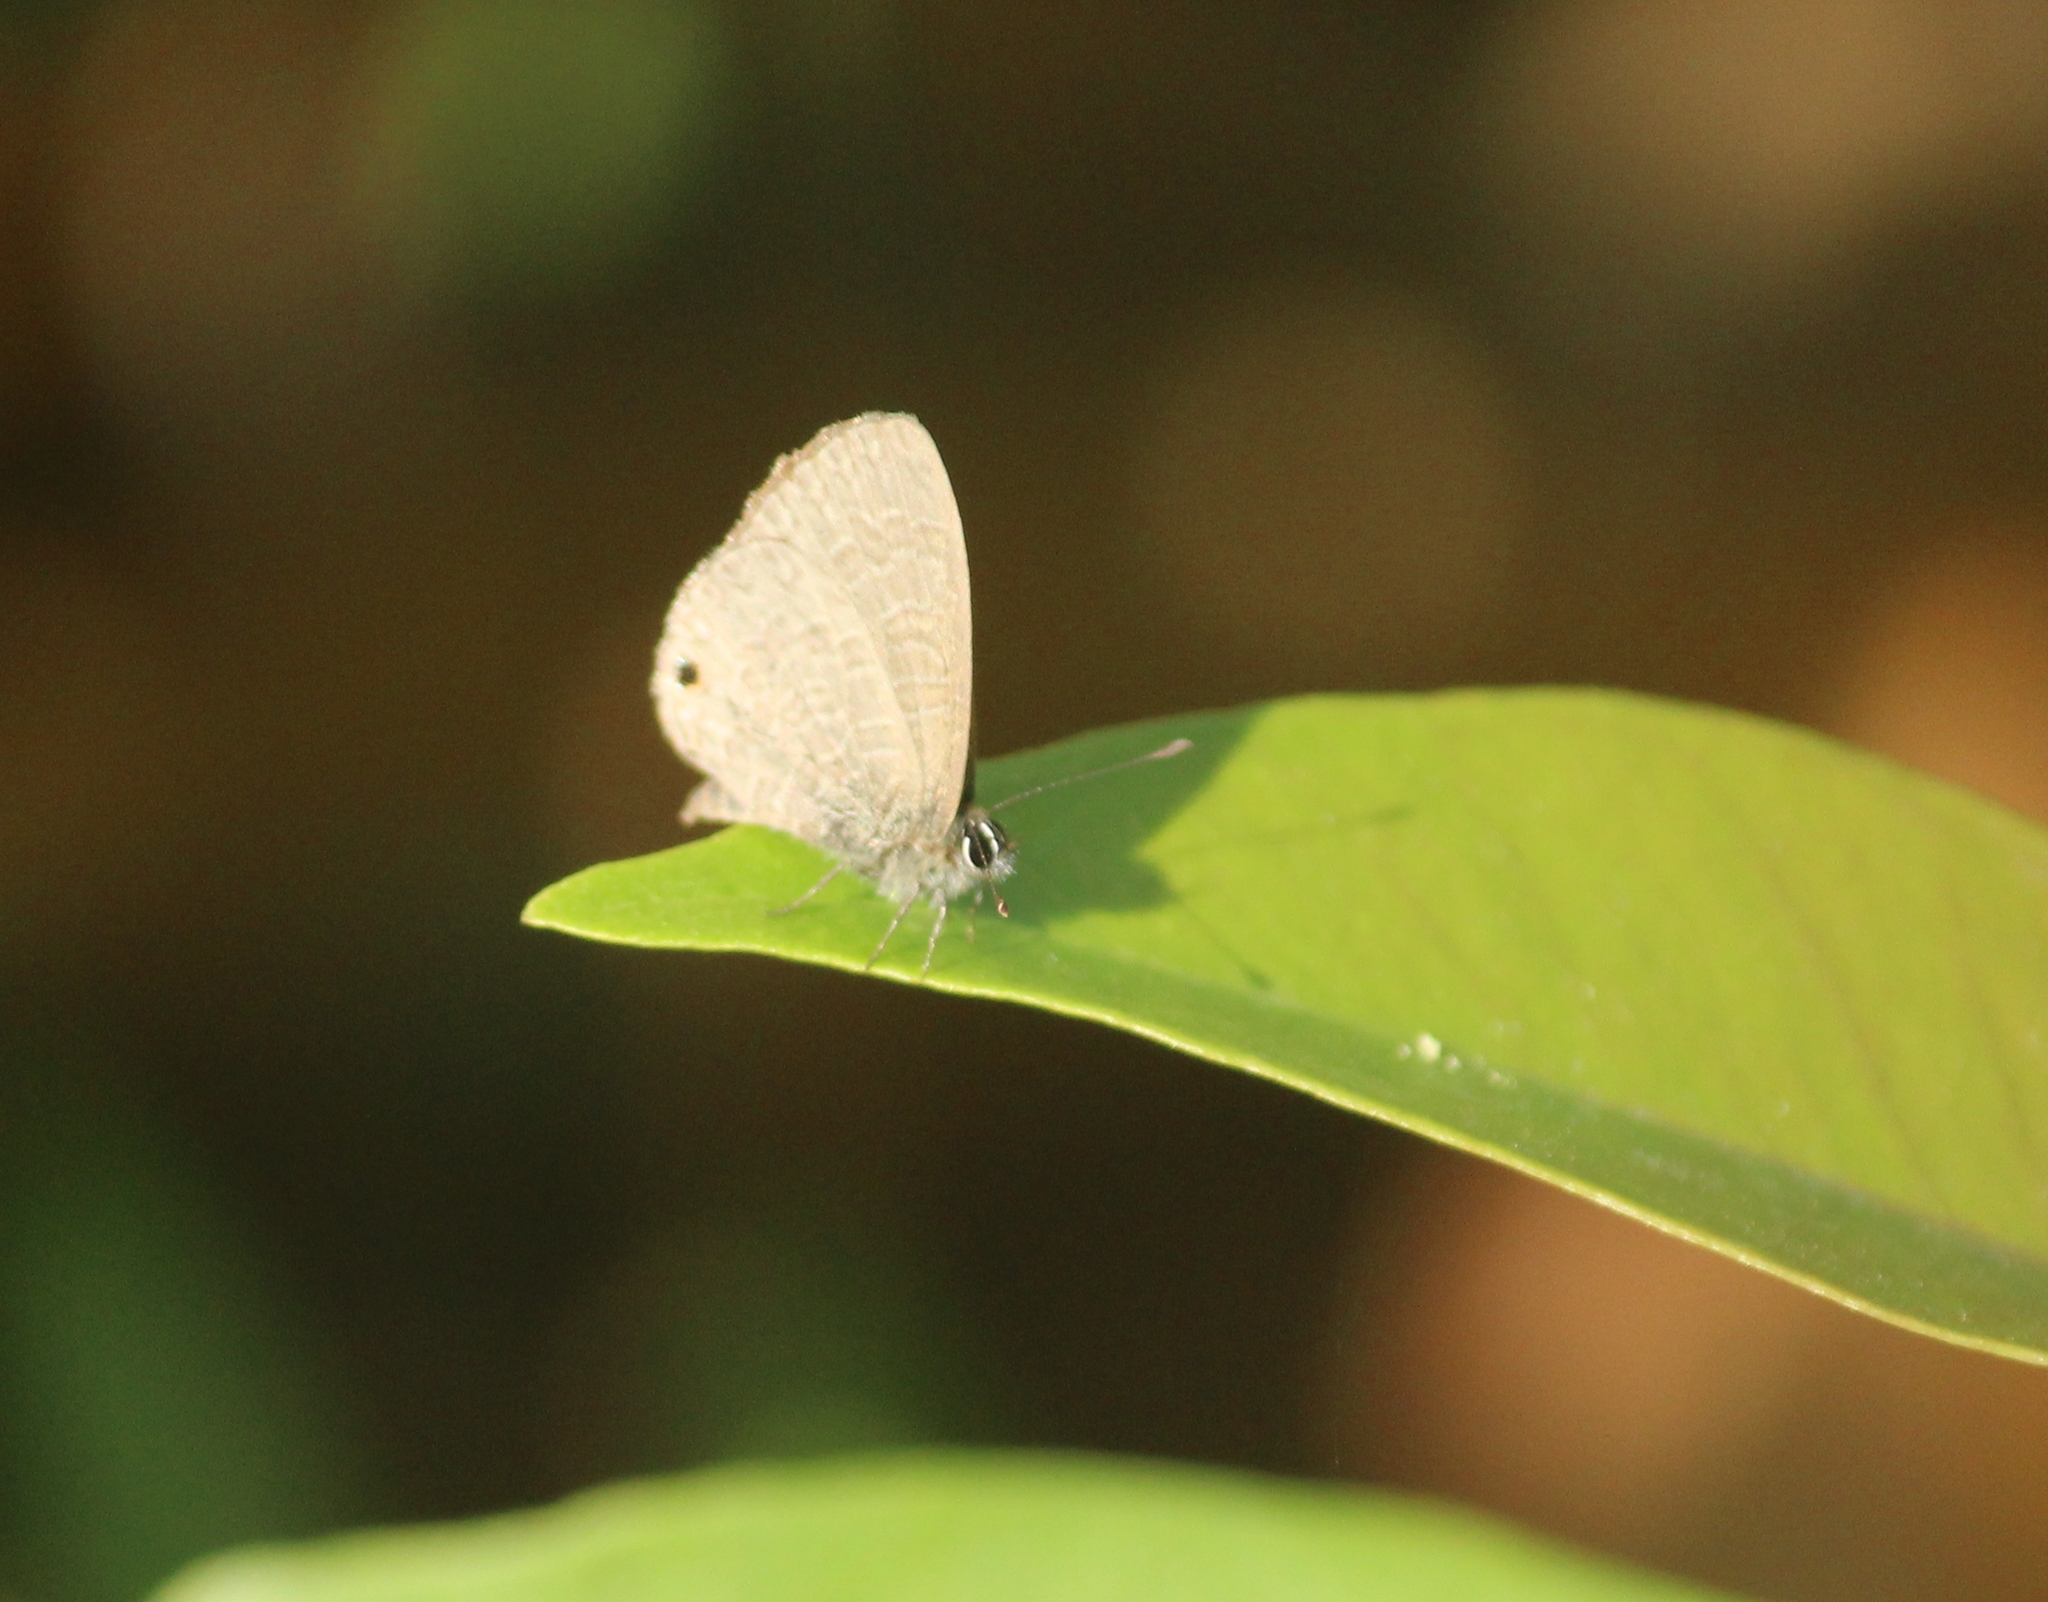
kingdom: Animalia
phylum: Arthropoda
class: Insecta
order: Lepidoptera
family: Lycaenidae
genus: Prosotas
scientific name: Prosotas dubiosa
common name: Tailless lineblue
